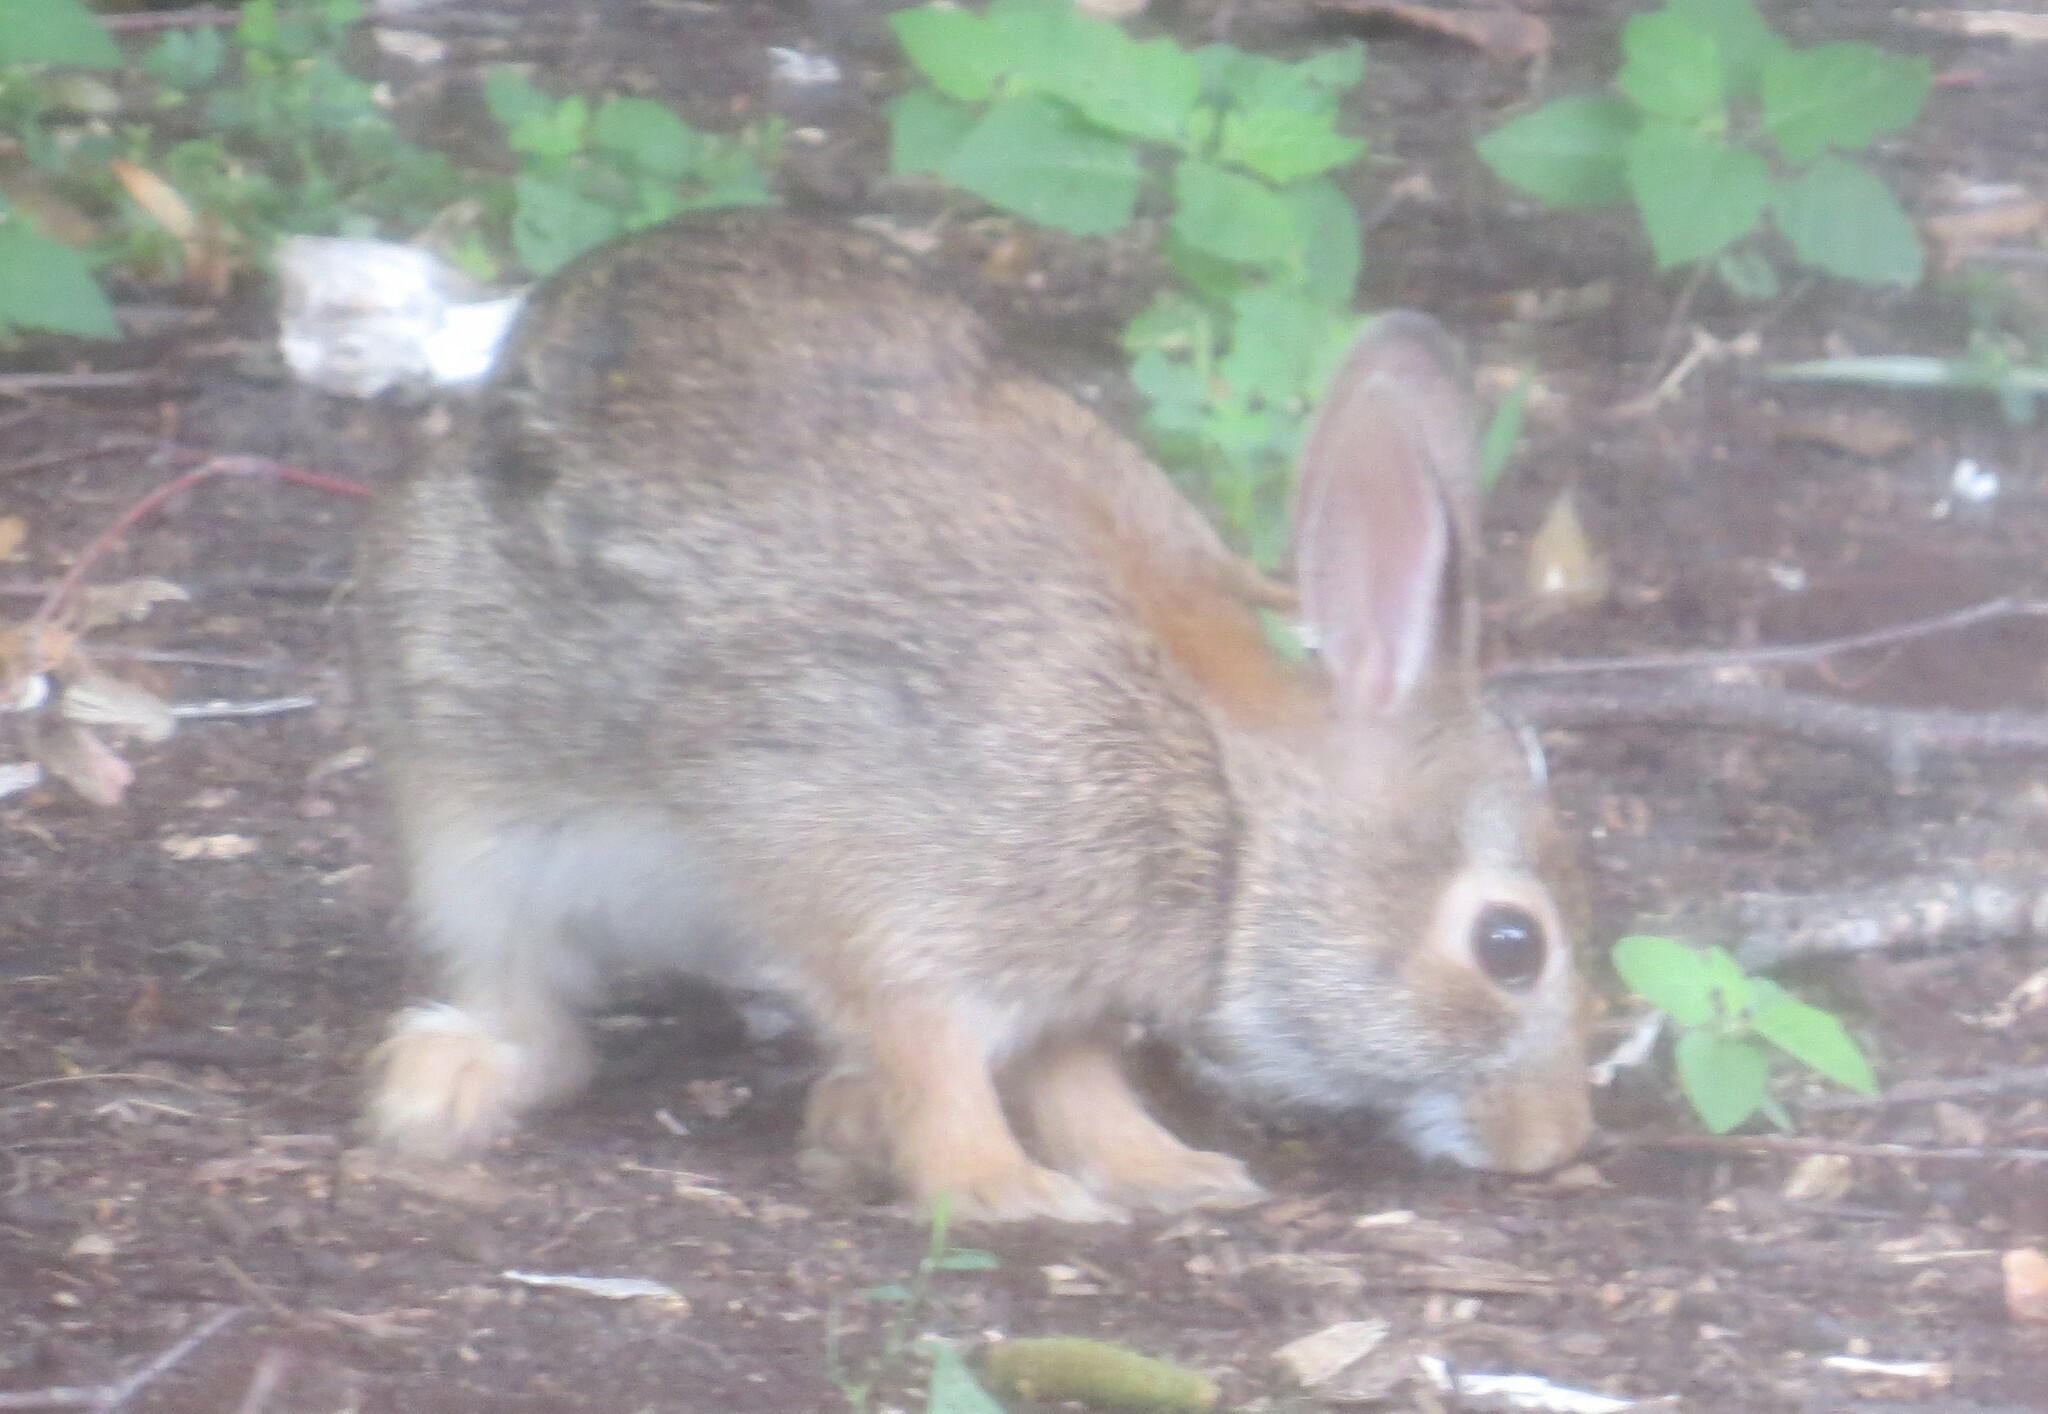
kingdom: Animalia
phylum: Chordata
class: Mammalia
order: Lagomorpha
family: Leporidae
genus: Sylvilagus
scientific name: Sylvilagus floridanus
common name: Eastern cottontail
